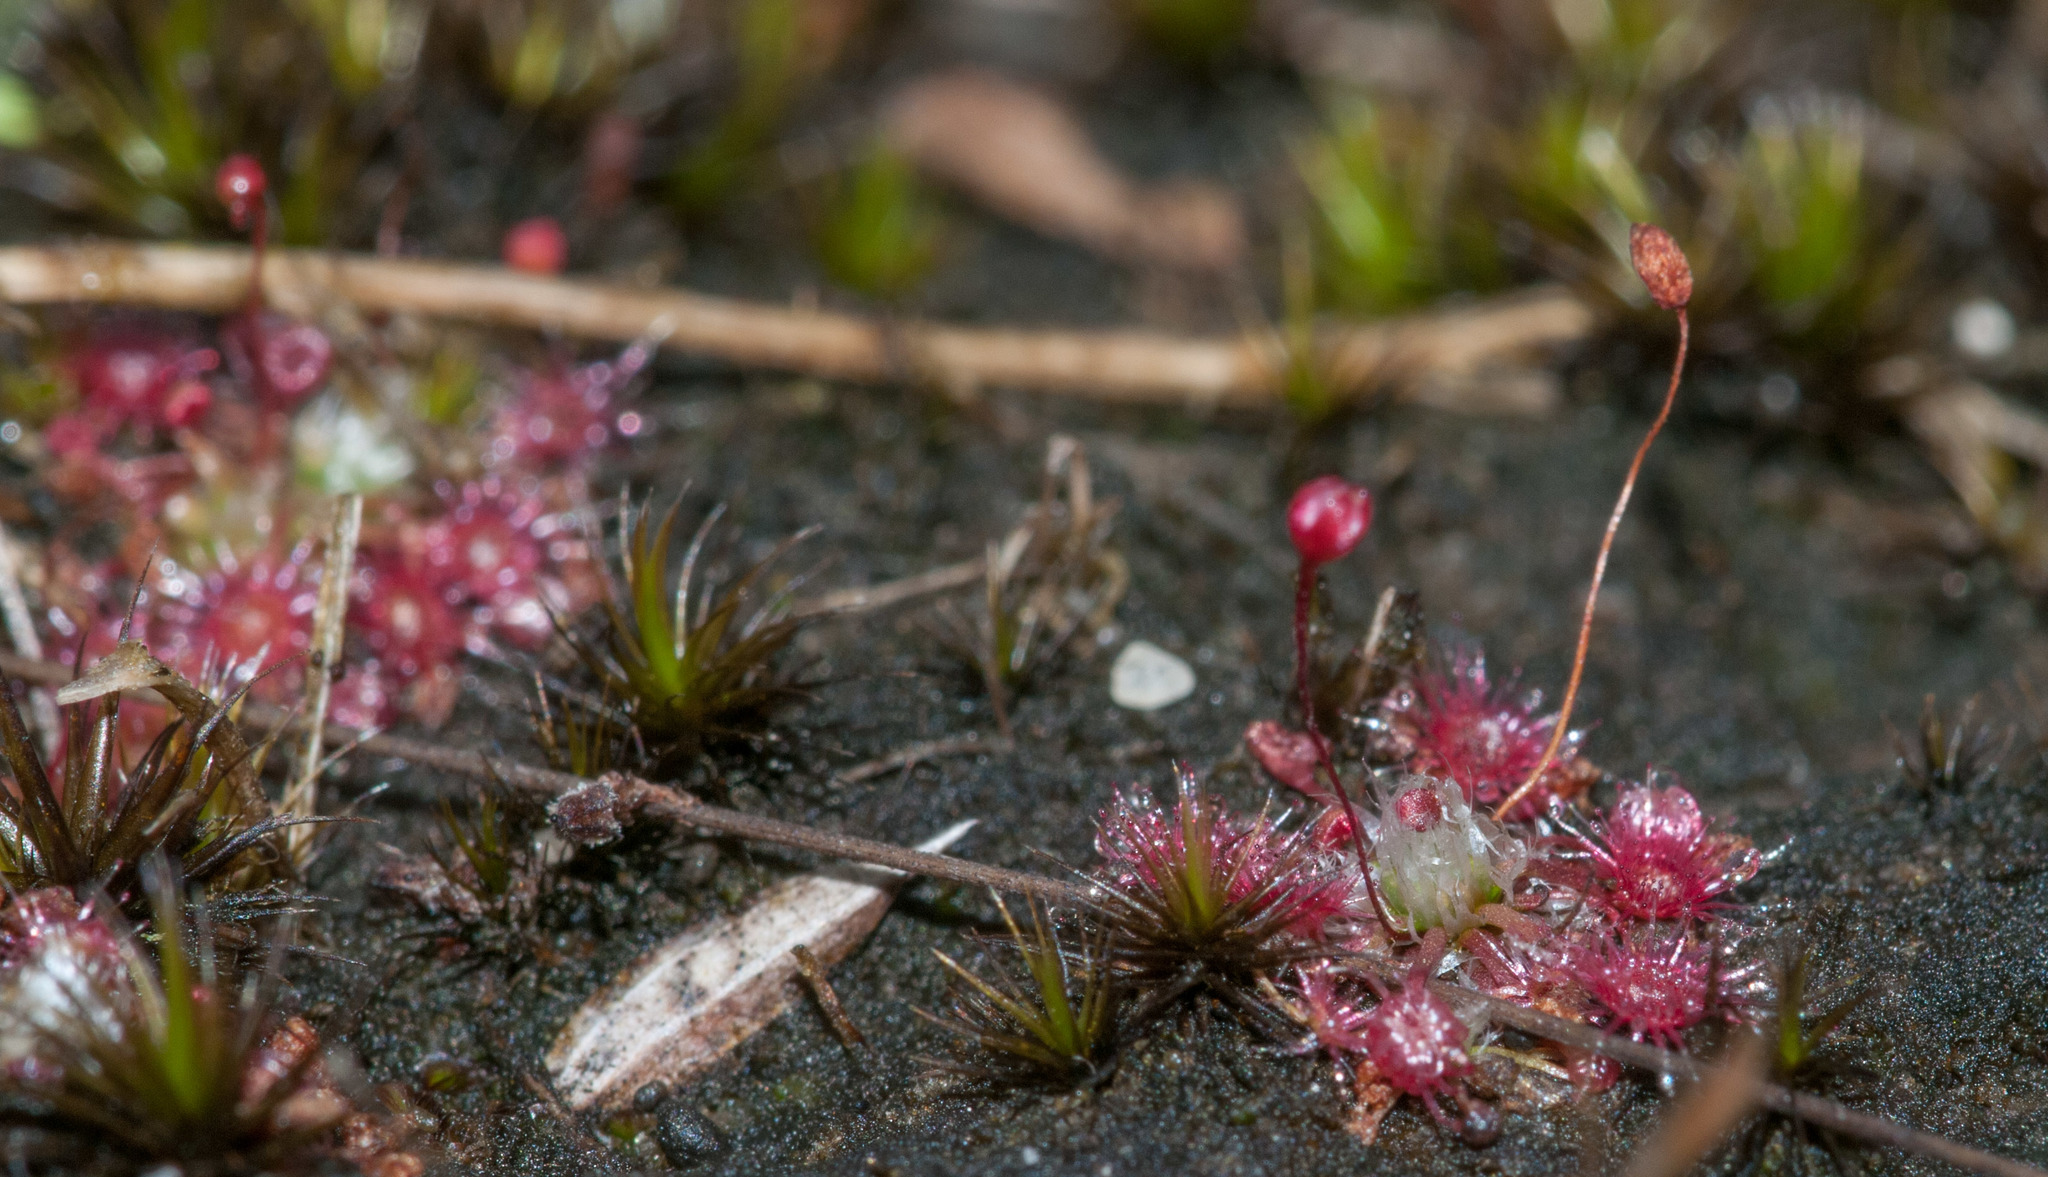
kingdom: Plantae
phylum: Tracheophyta
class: Magnoliopsida
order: Caryophyllales
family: Droseraceae
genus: Drosera
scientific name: Drosera pygmaea
